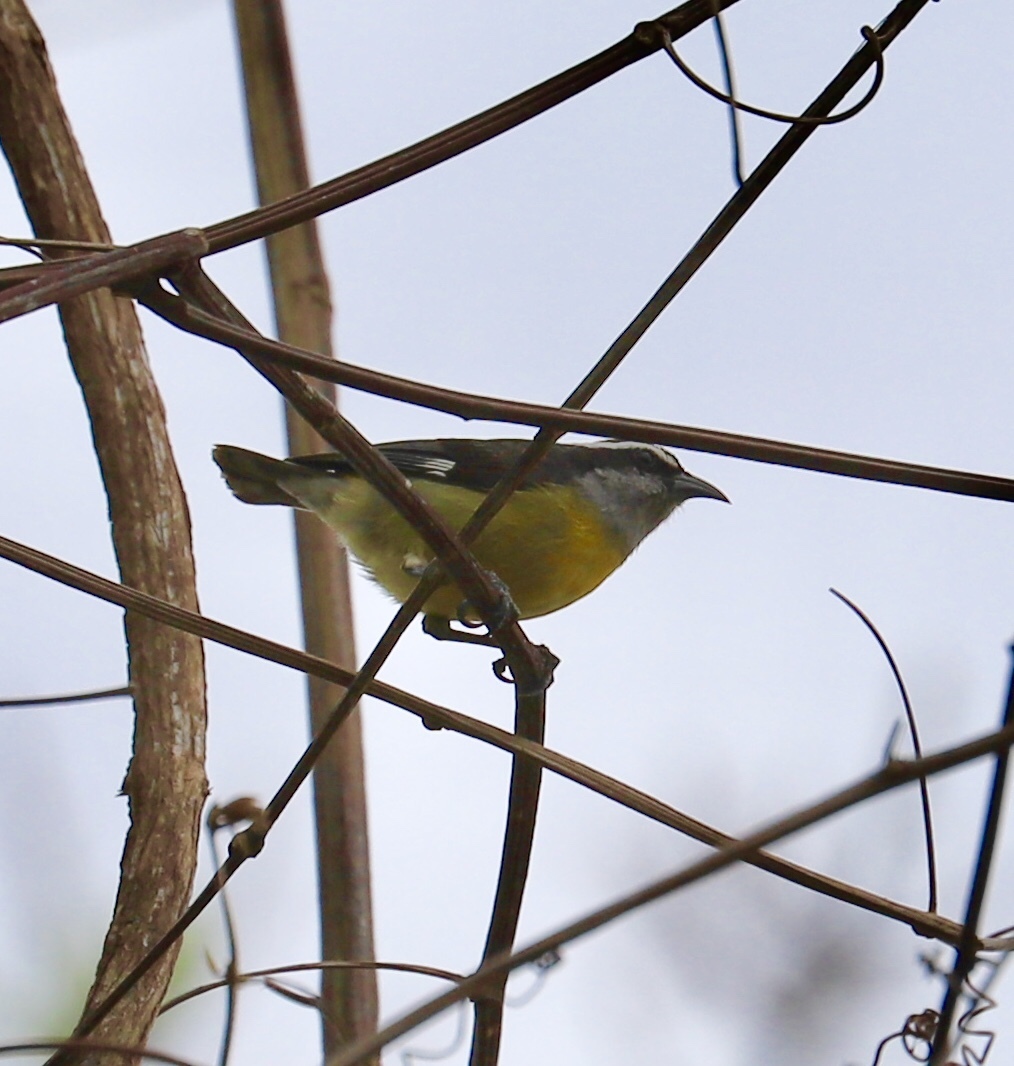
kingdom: Animalia
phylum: Chordata
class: Aves
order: Passeriformes
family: Thraupidae
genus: Coereba
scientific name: Coereba flaveola
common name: Bananaquit
